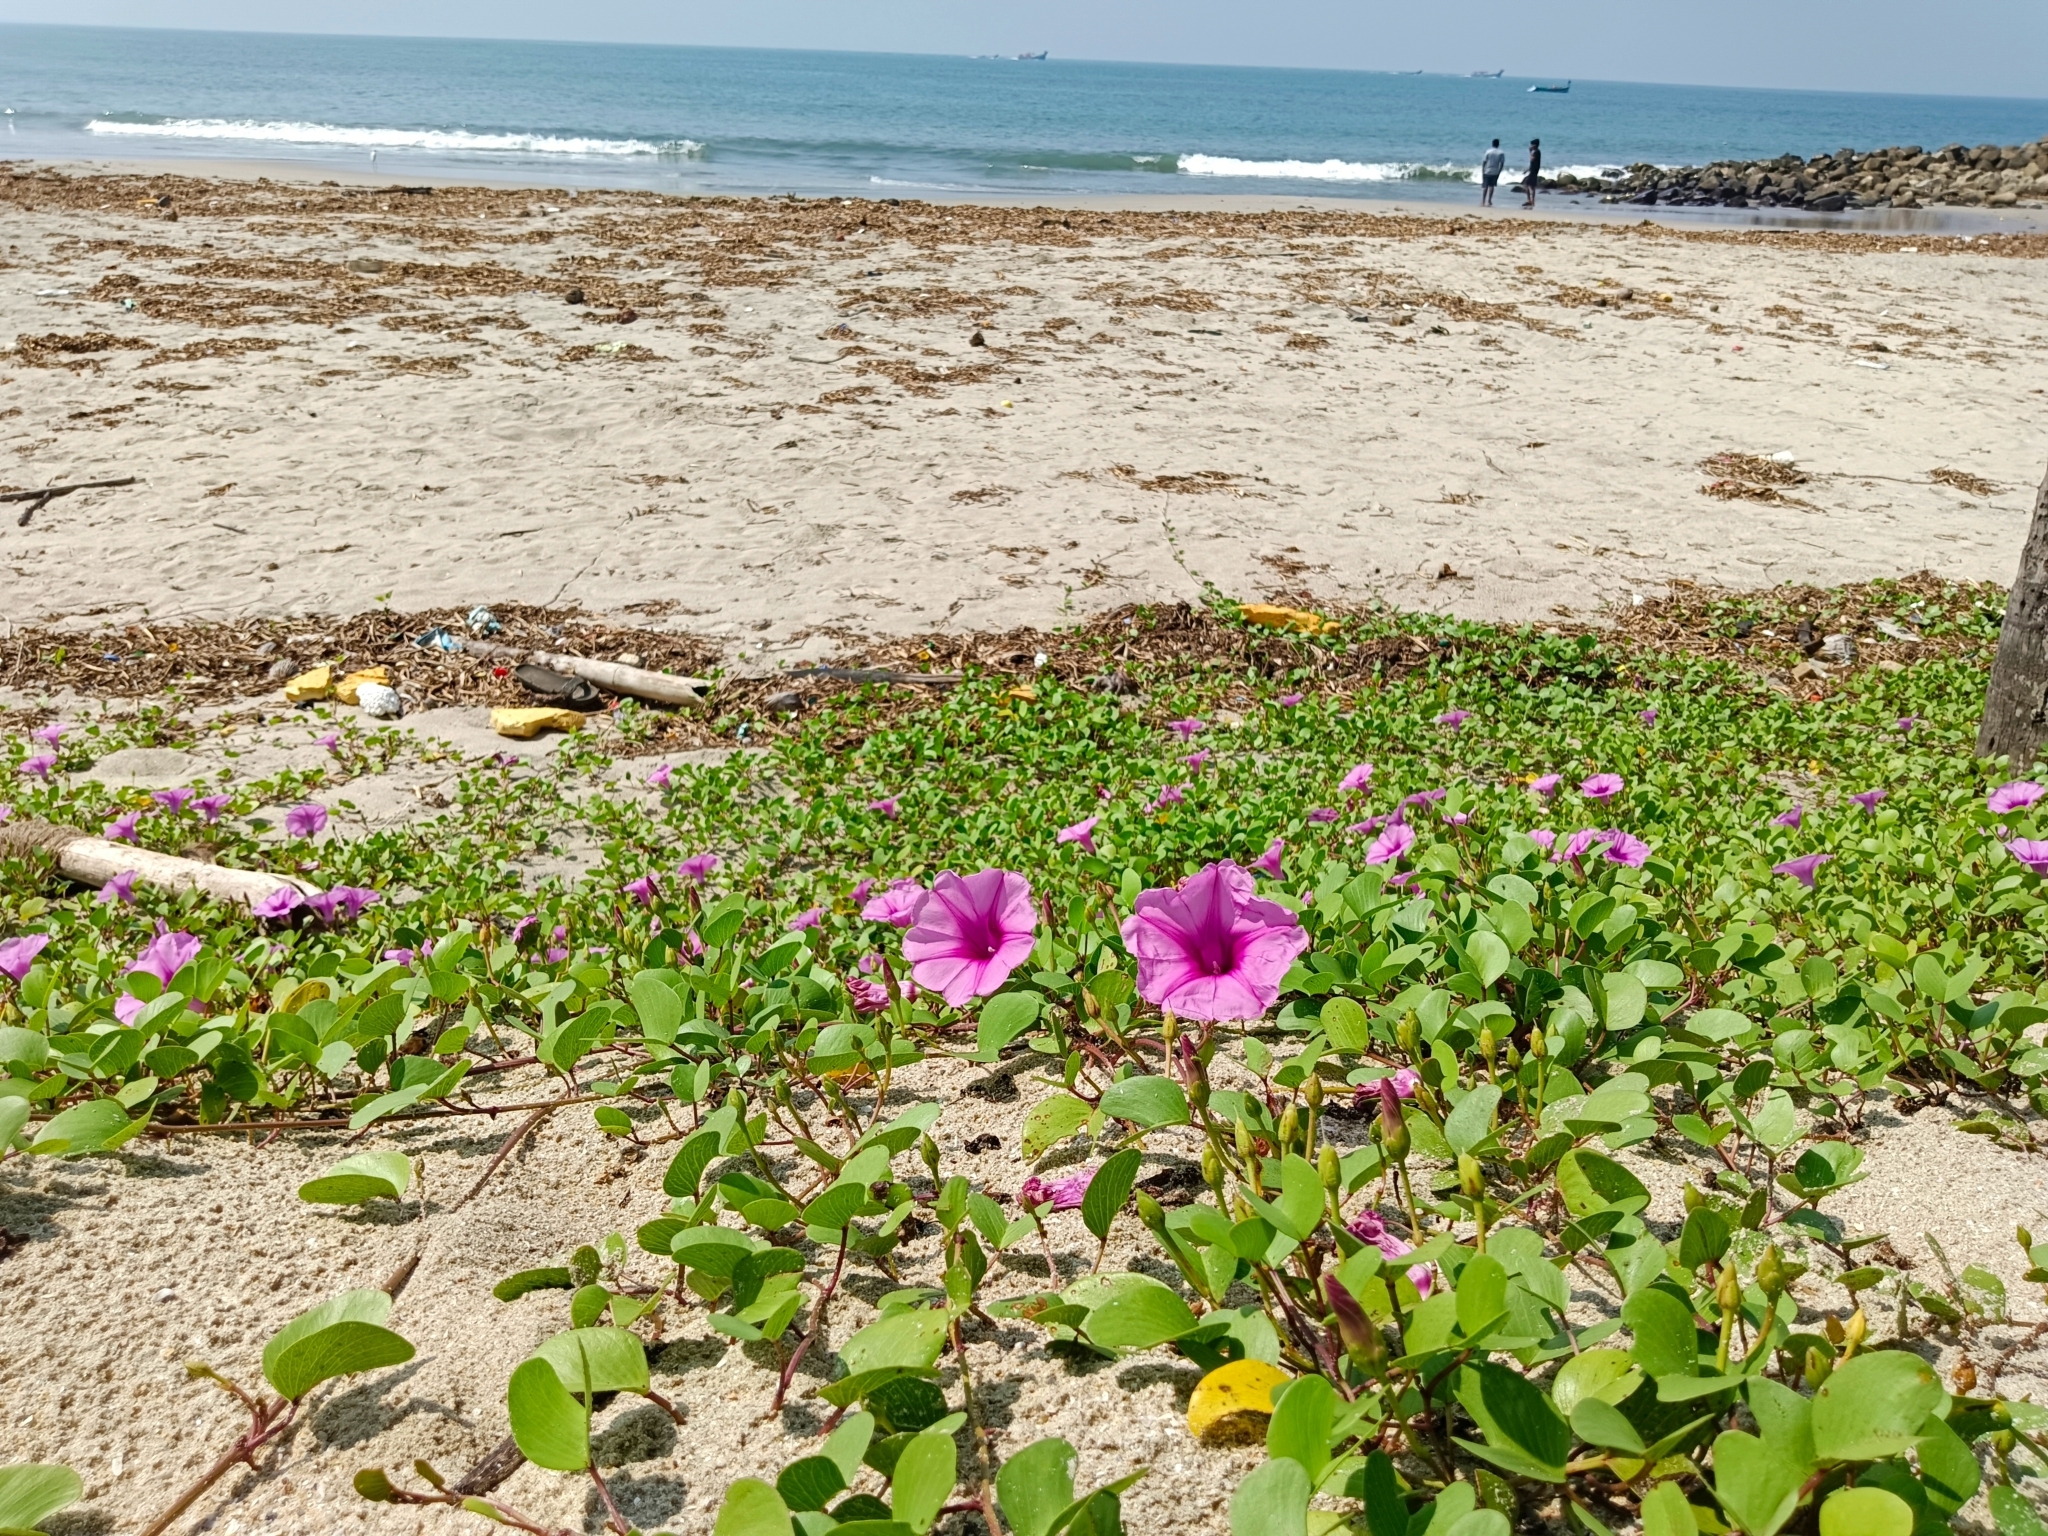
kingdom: Plantae
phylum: Tracheophyta
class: Magnoliopsida
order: Solanales
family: Convolvulaceae
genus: Ipomoea
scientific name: Ipomoea pes-caprae
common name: Beach morning glory
